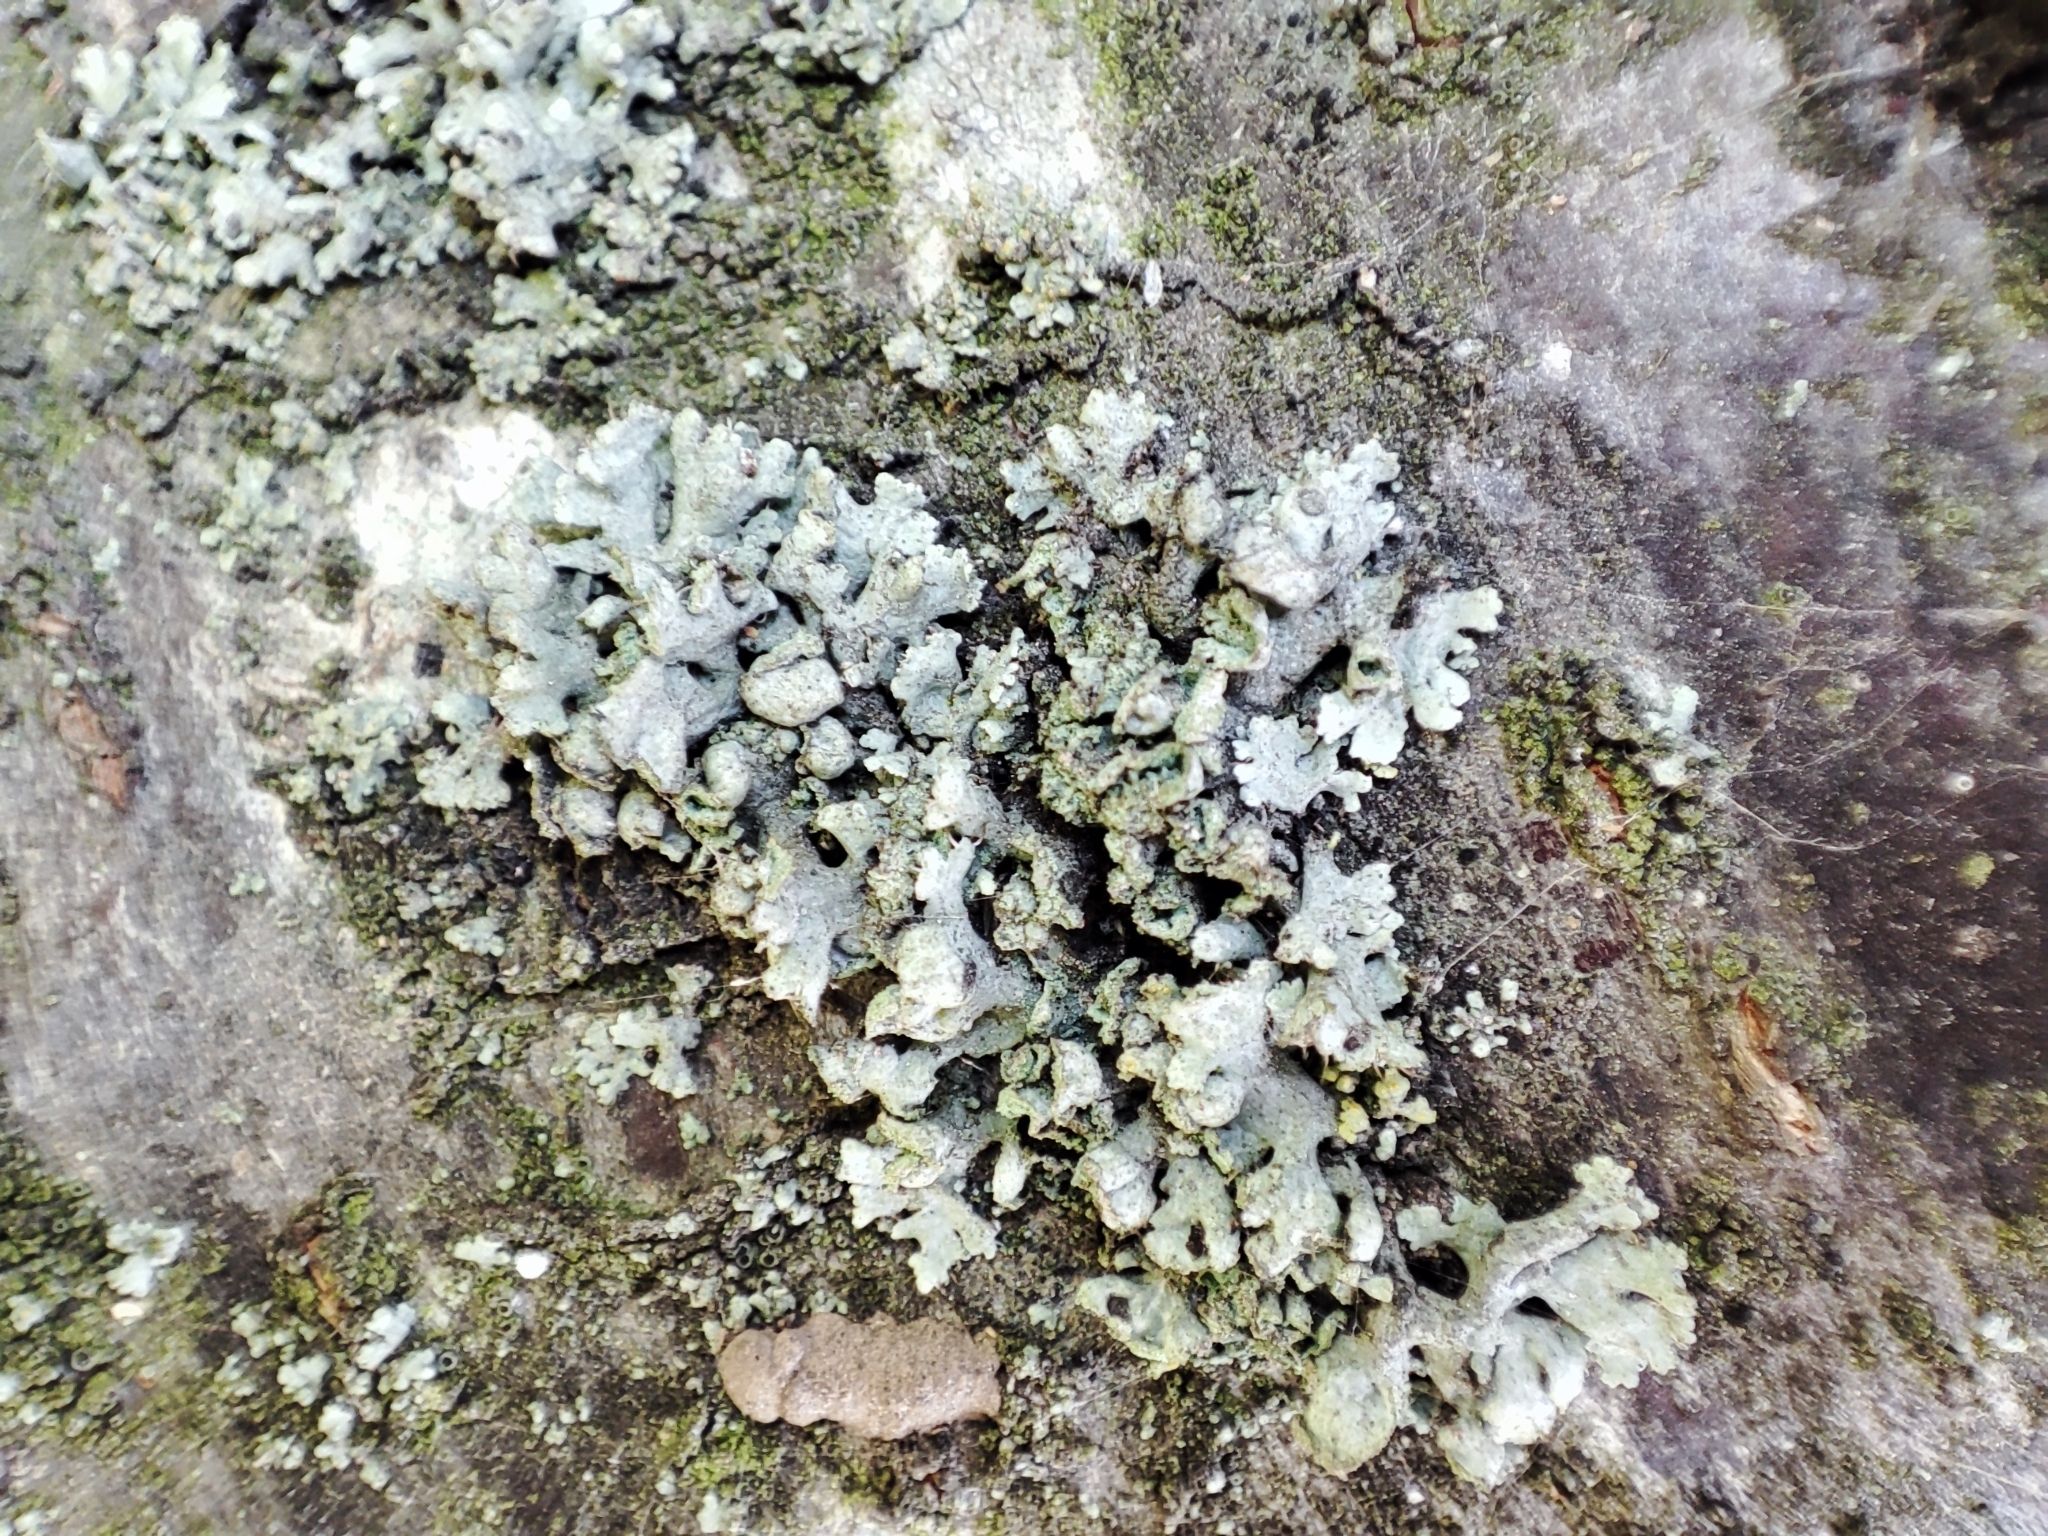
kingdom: Fungi
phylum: Ascomycota
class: Lecanoromycetes
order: Caliciales
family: Physciaceae
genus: Physcia
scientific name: Physcia adscendens
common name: Hooded rosette lichen
